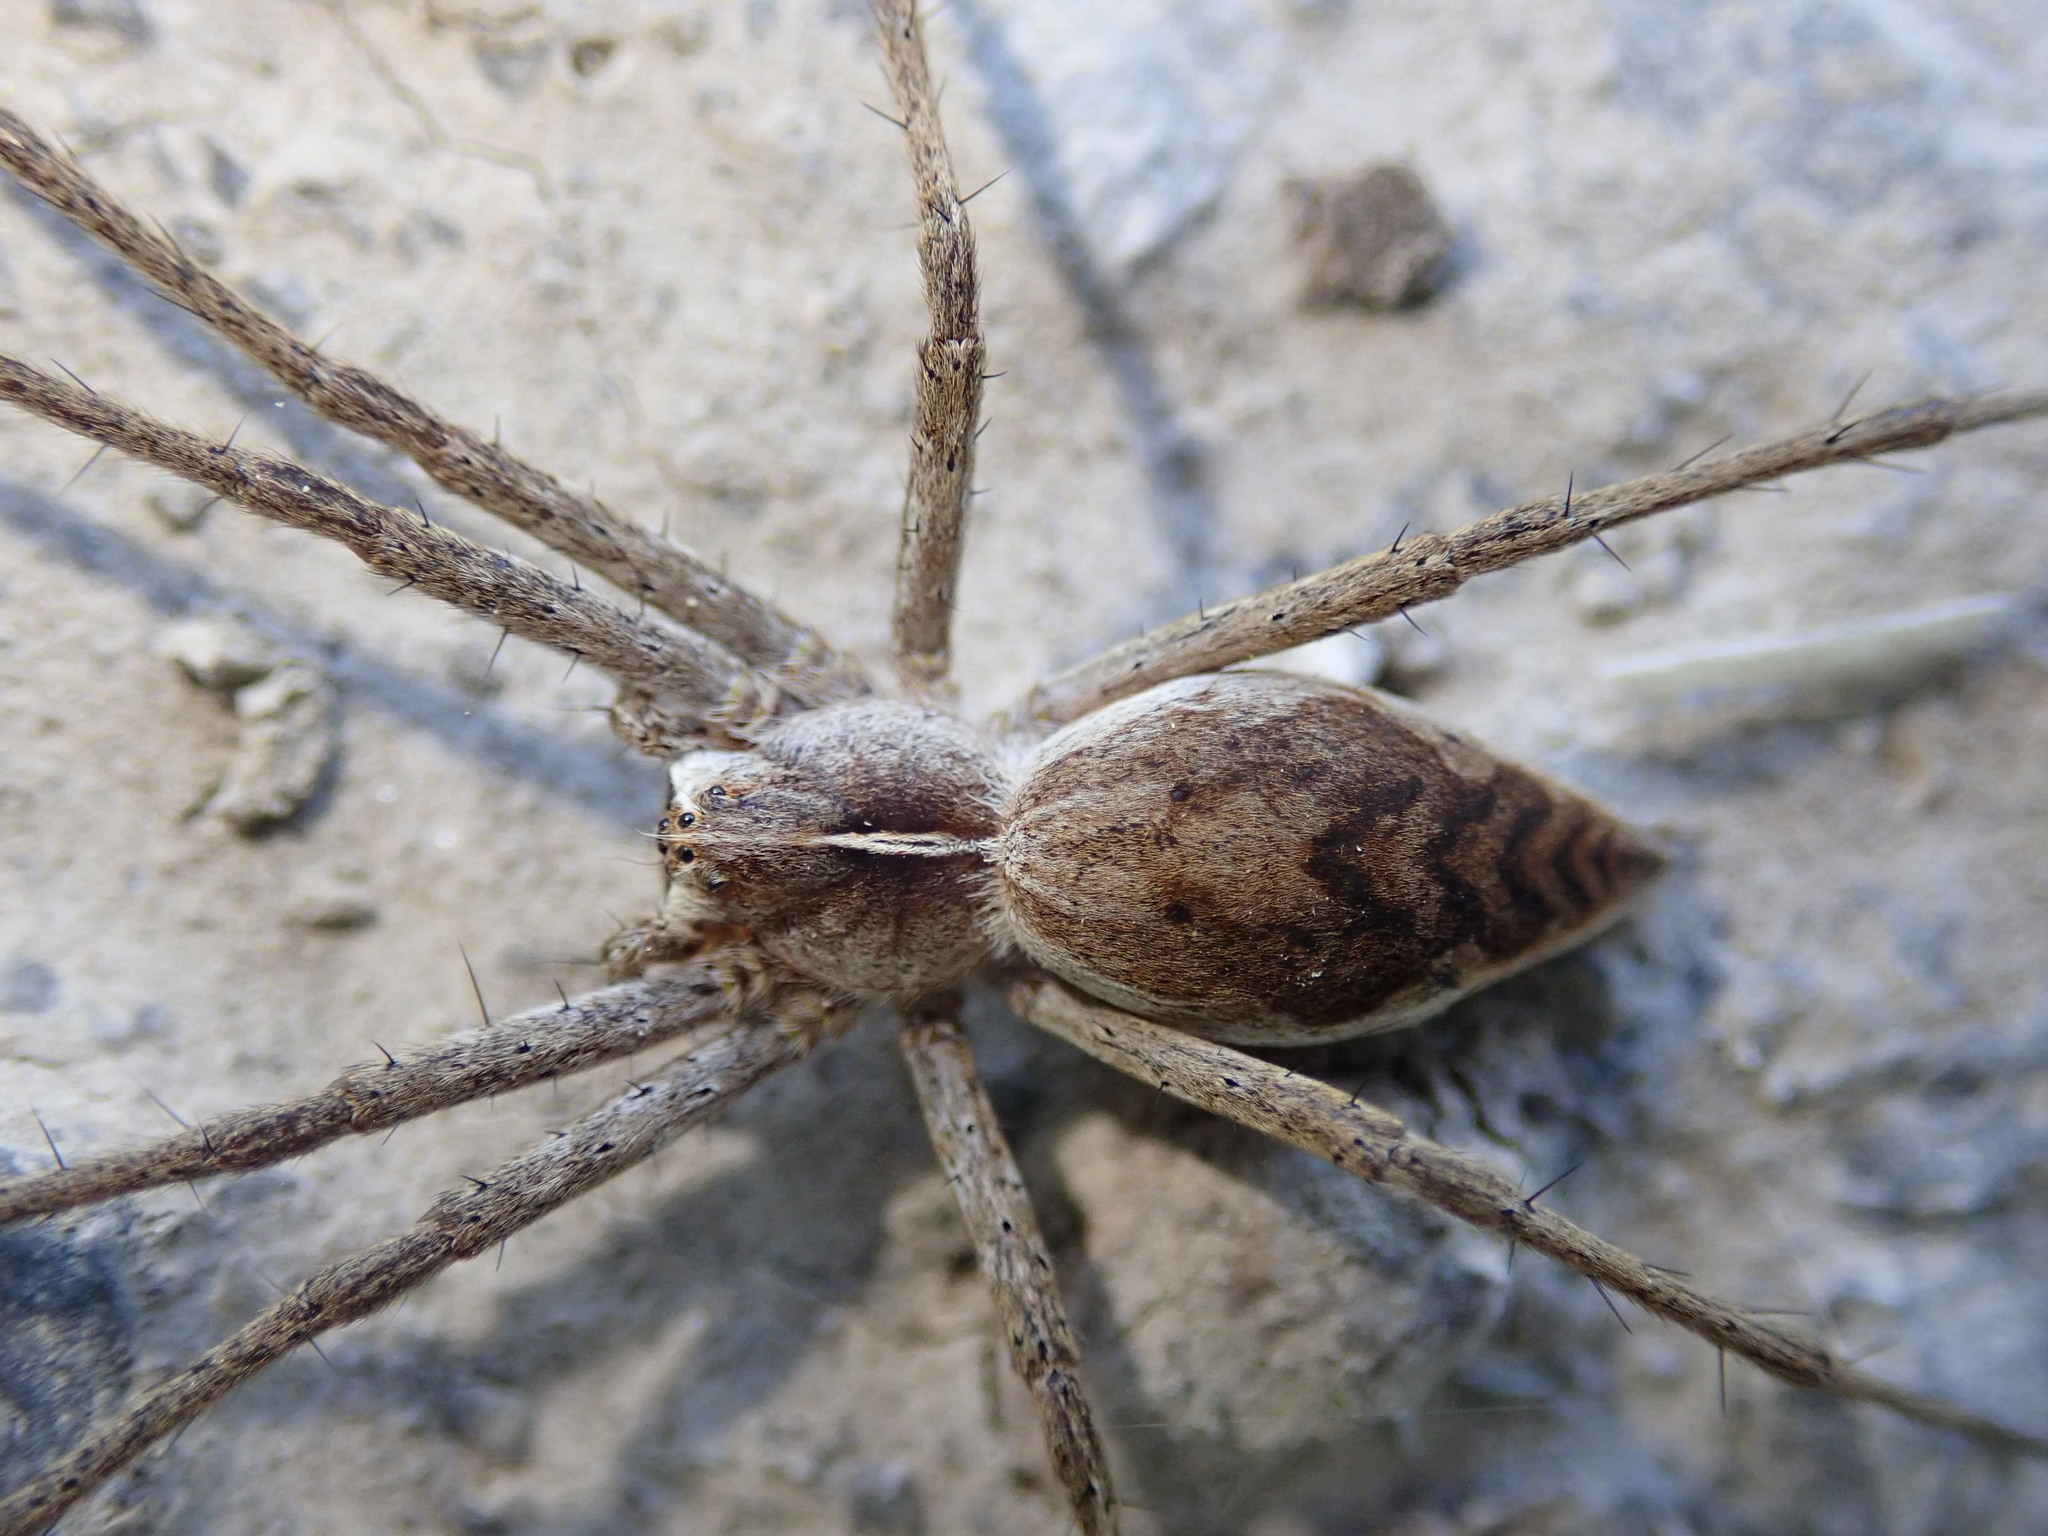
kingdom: Animalia
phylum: Arthropoda
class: Arachnida
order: Araneae
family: Pisauridae
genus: Pisaura
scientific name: Pisaura mirabilis
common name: Tent spider
